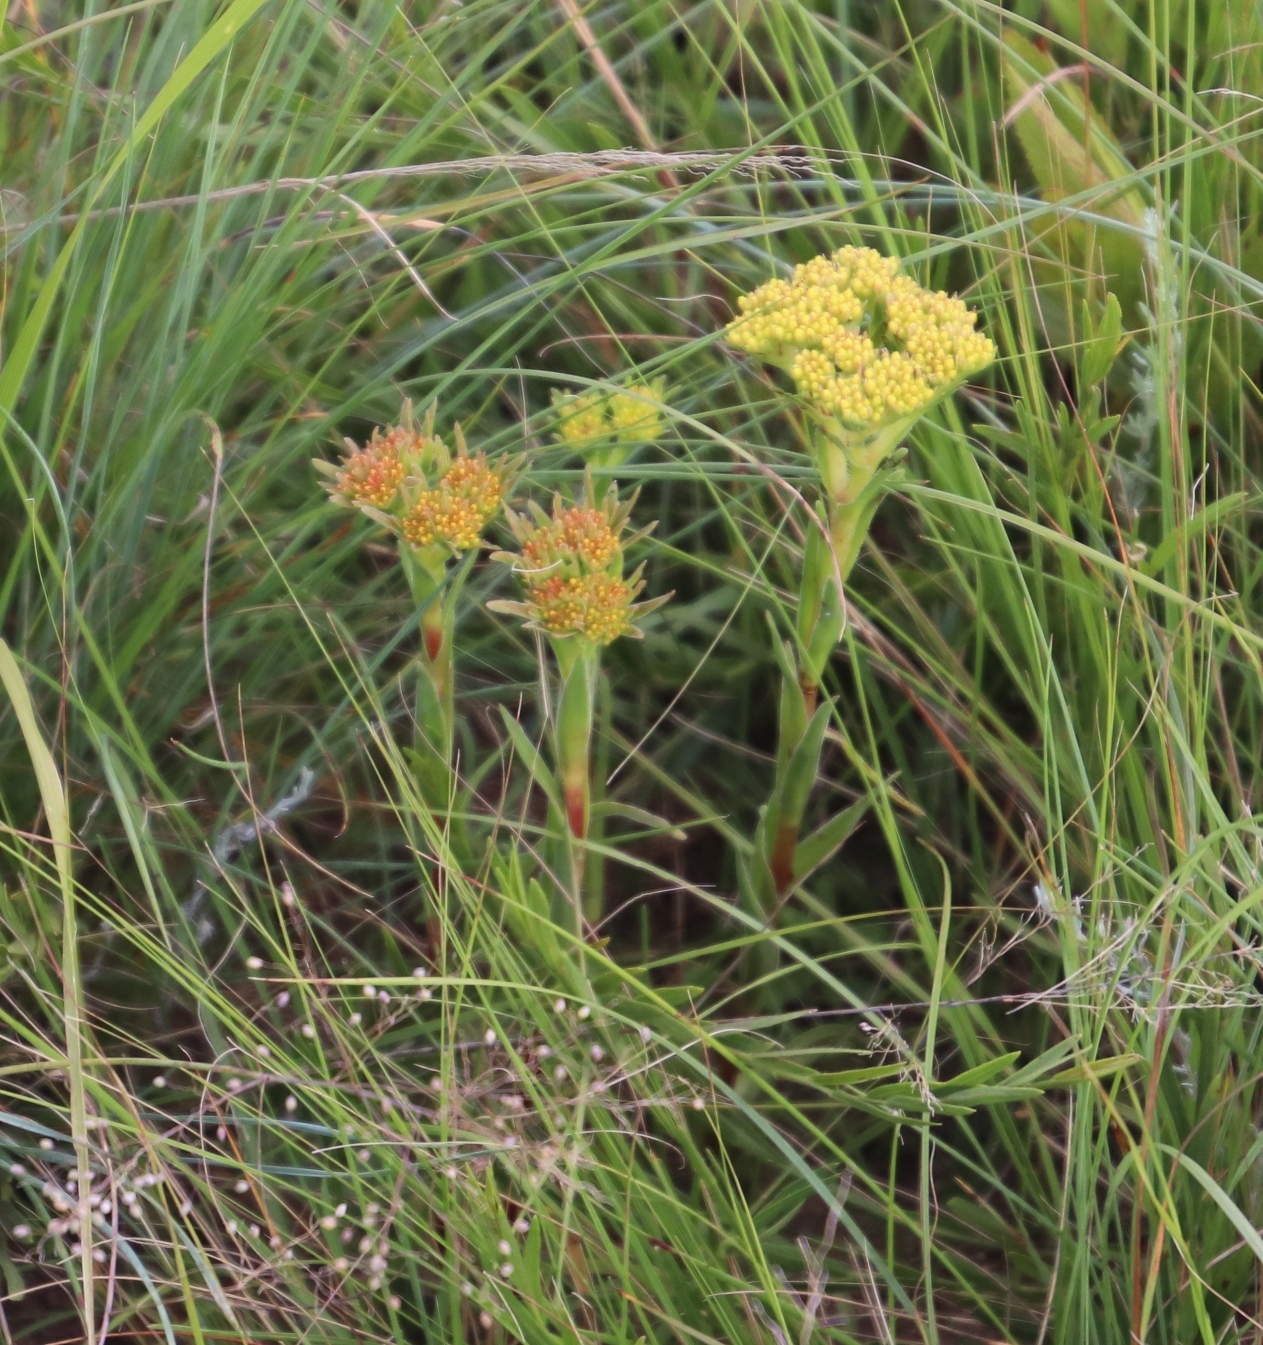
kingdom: Plantae
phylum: Tracheophyta
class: Magnoliopsida
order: Saxifragales
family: Crassulaceae
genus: Crassula
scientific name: Crassula vaginata
